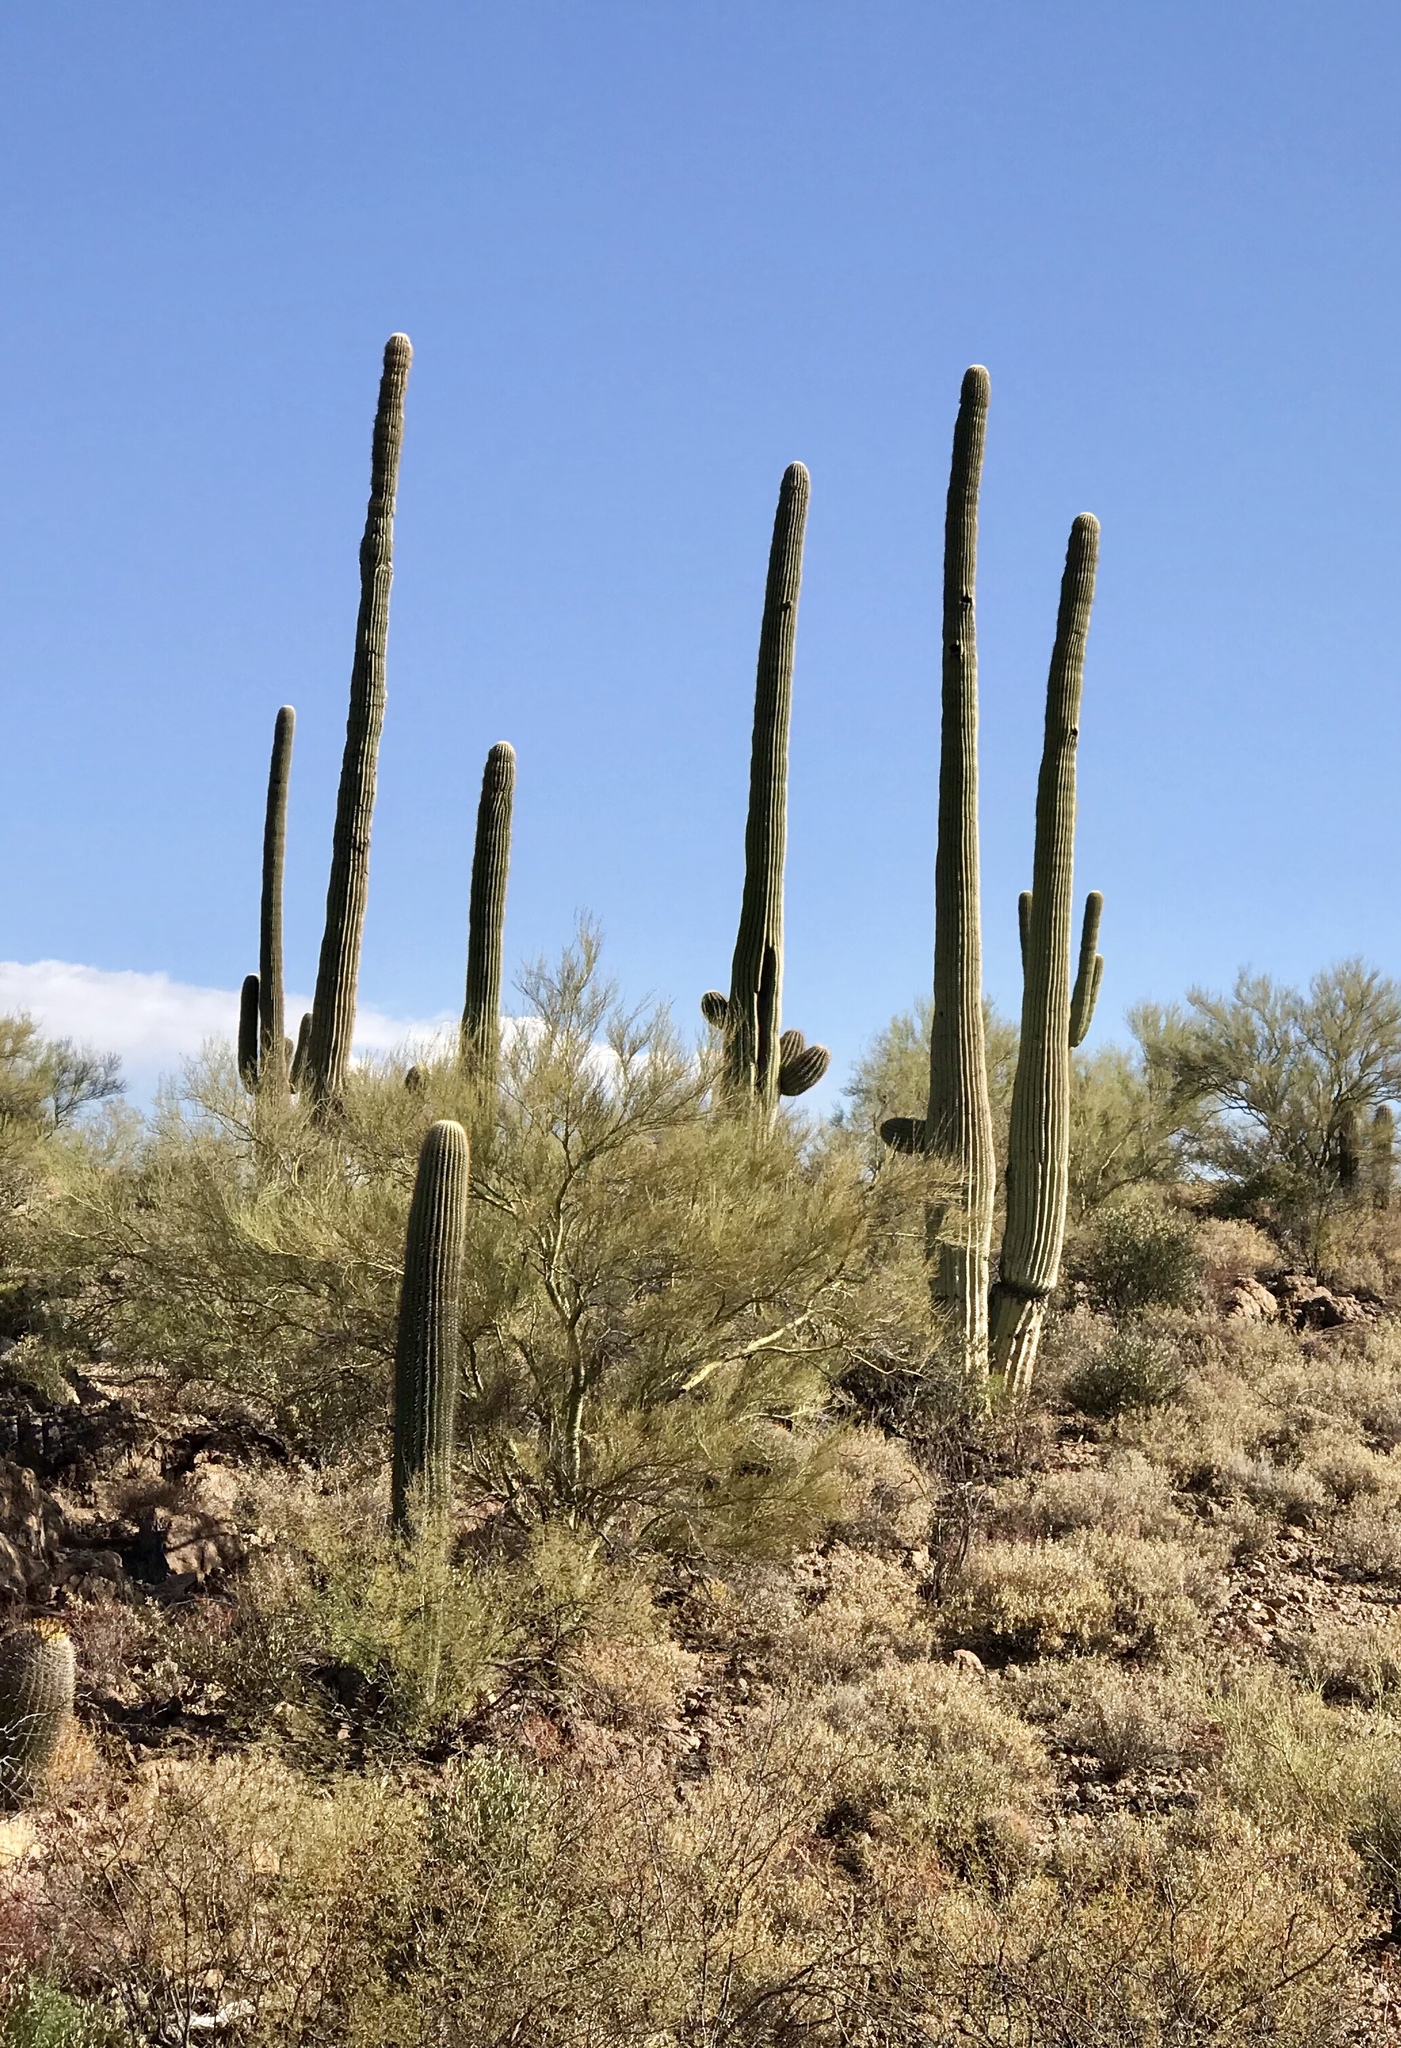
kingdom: Plantae
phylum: Tracheophyta
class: Magnoliopsida
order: Caryophyllales
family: Cactaceae
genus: Carnegiea
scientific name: Carnegiea gigantea
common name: Saguaro
